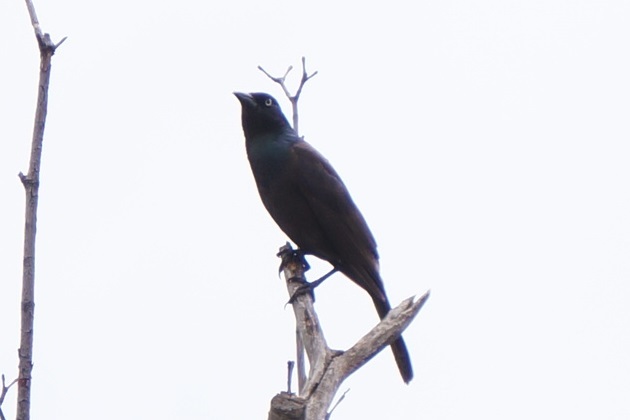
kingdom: Animalia
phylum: Chordata
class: Aves
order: Passeriformes
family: Icteridae
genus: Quiscalus
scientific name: Quiscalus quiscula
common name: Common grackle
